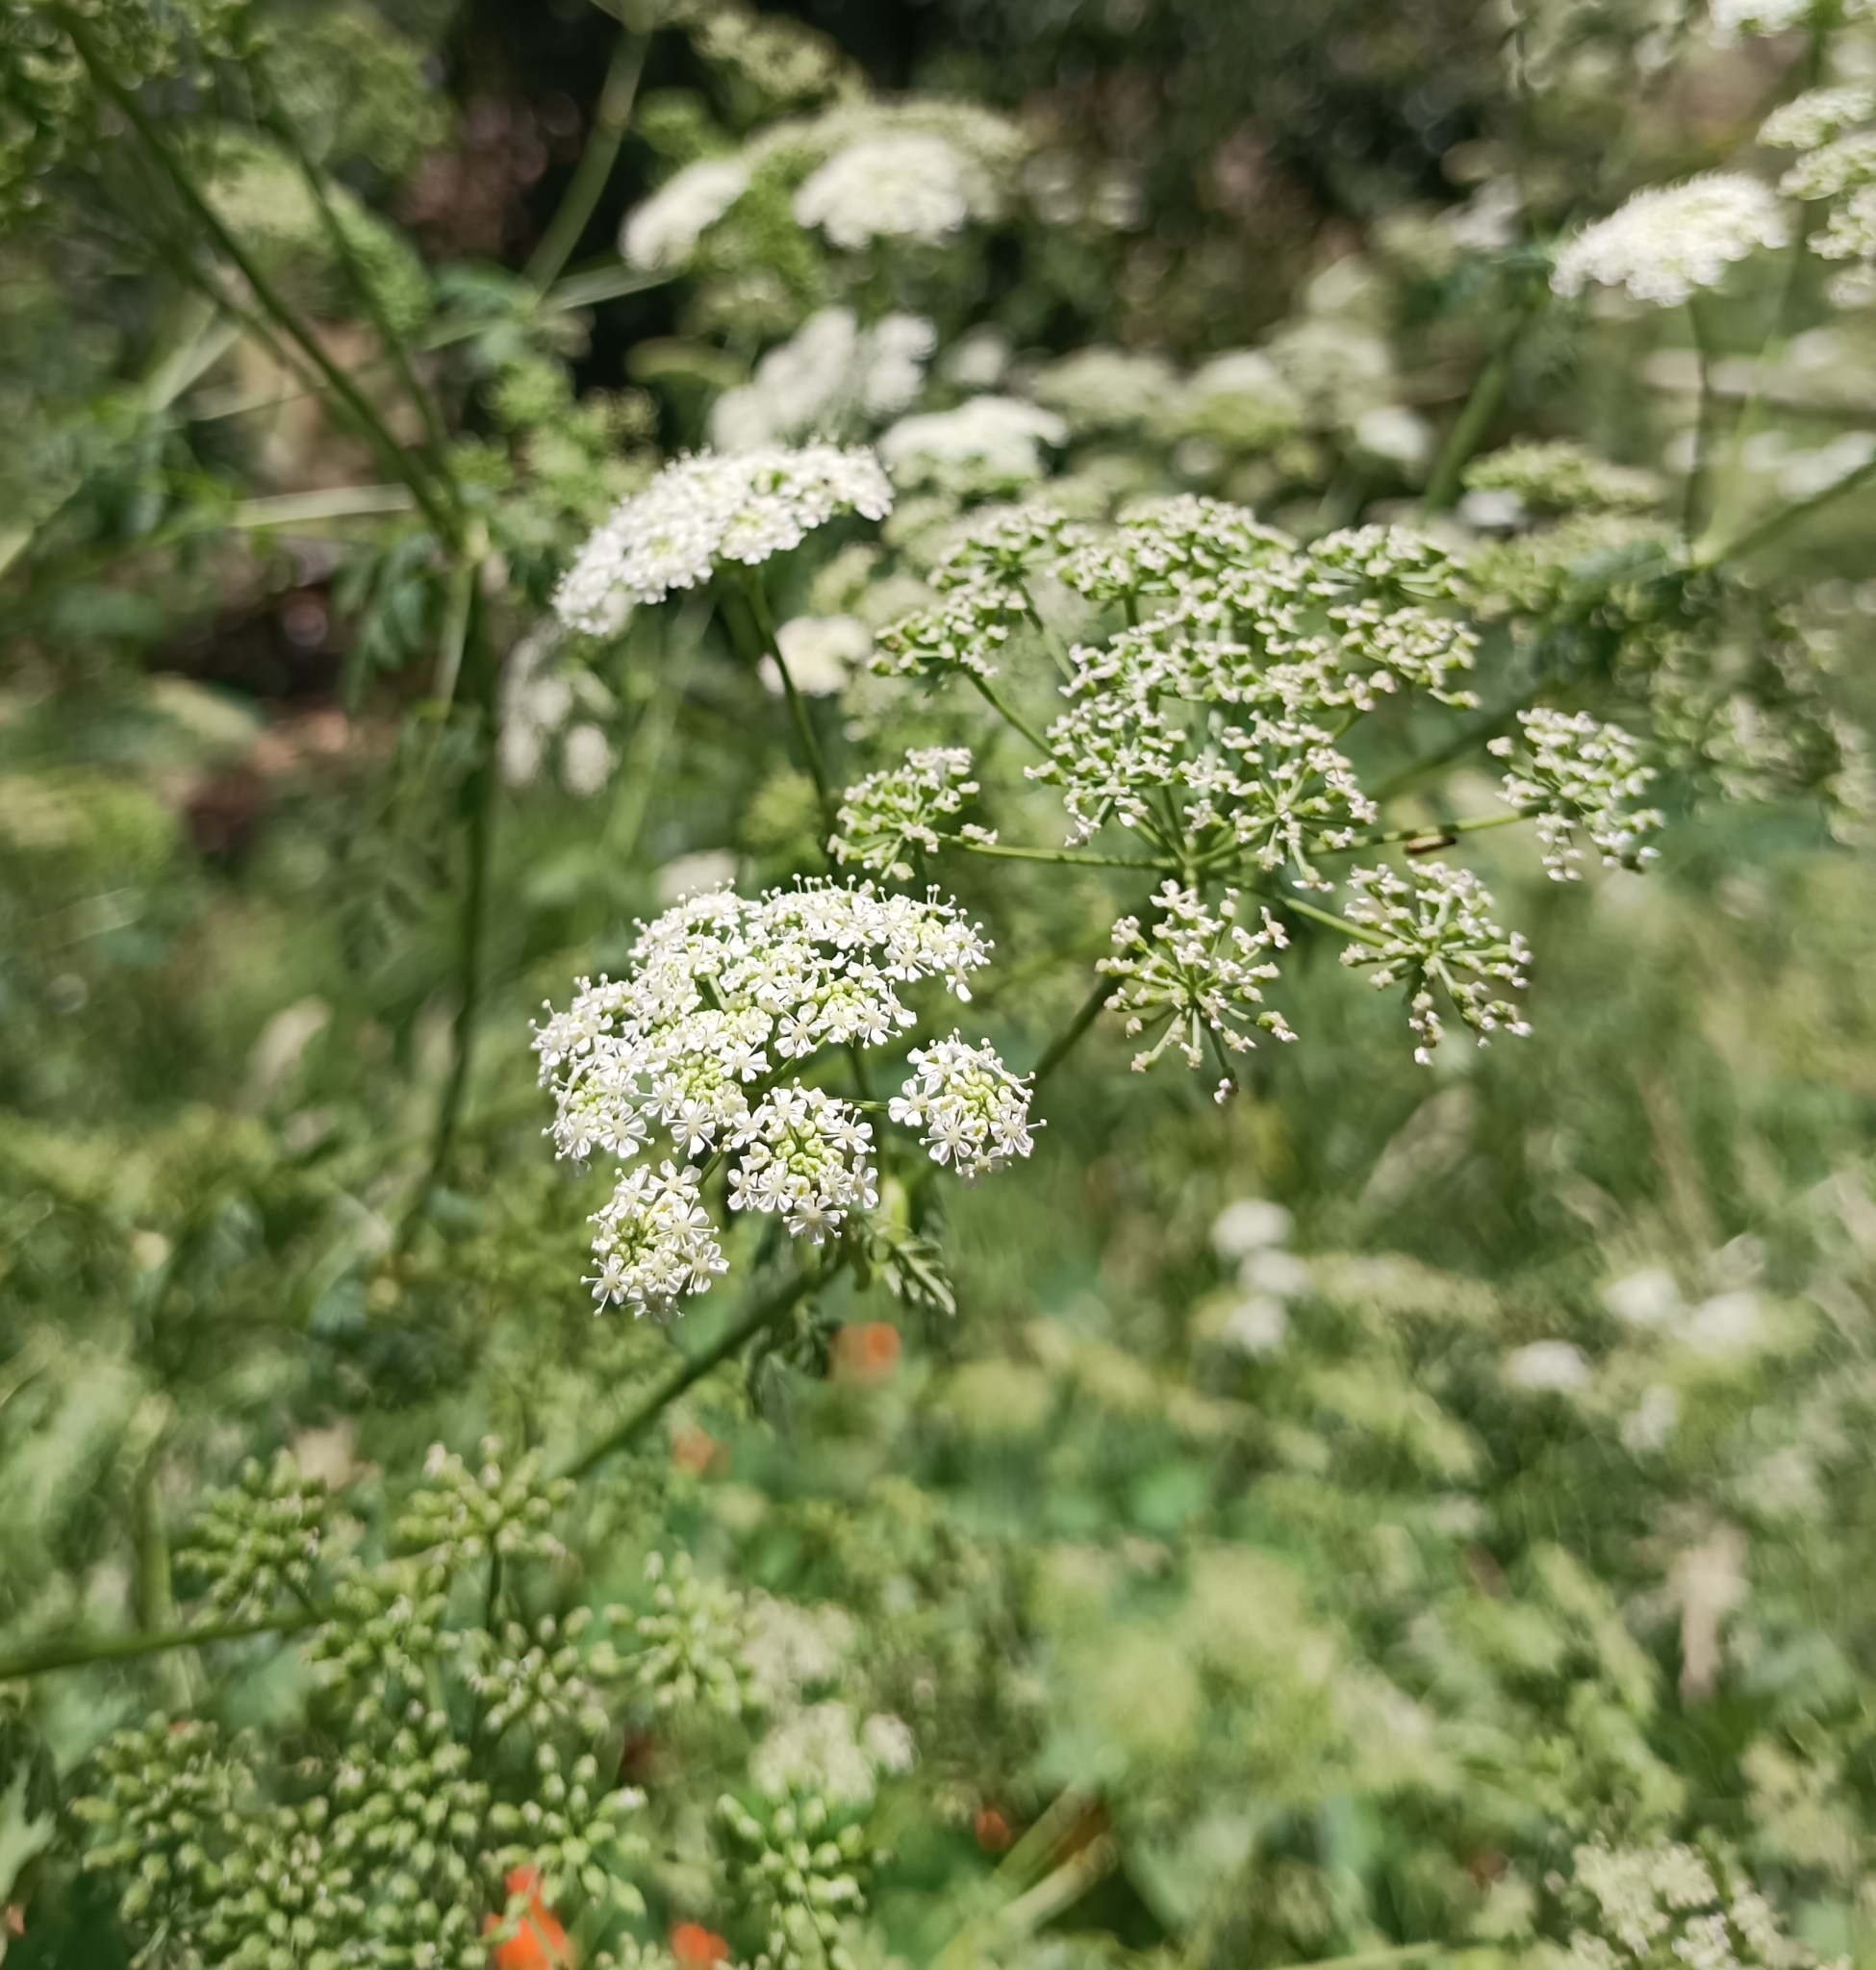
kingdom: Plantae
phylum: Tracheophyta
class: Magnoliopsida
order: Apiales
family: Apiaceae
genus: Conium
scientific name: Conium maculatum
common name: Hemlock
